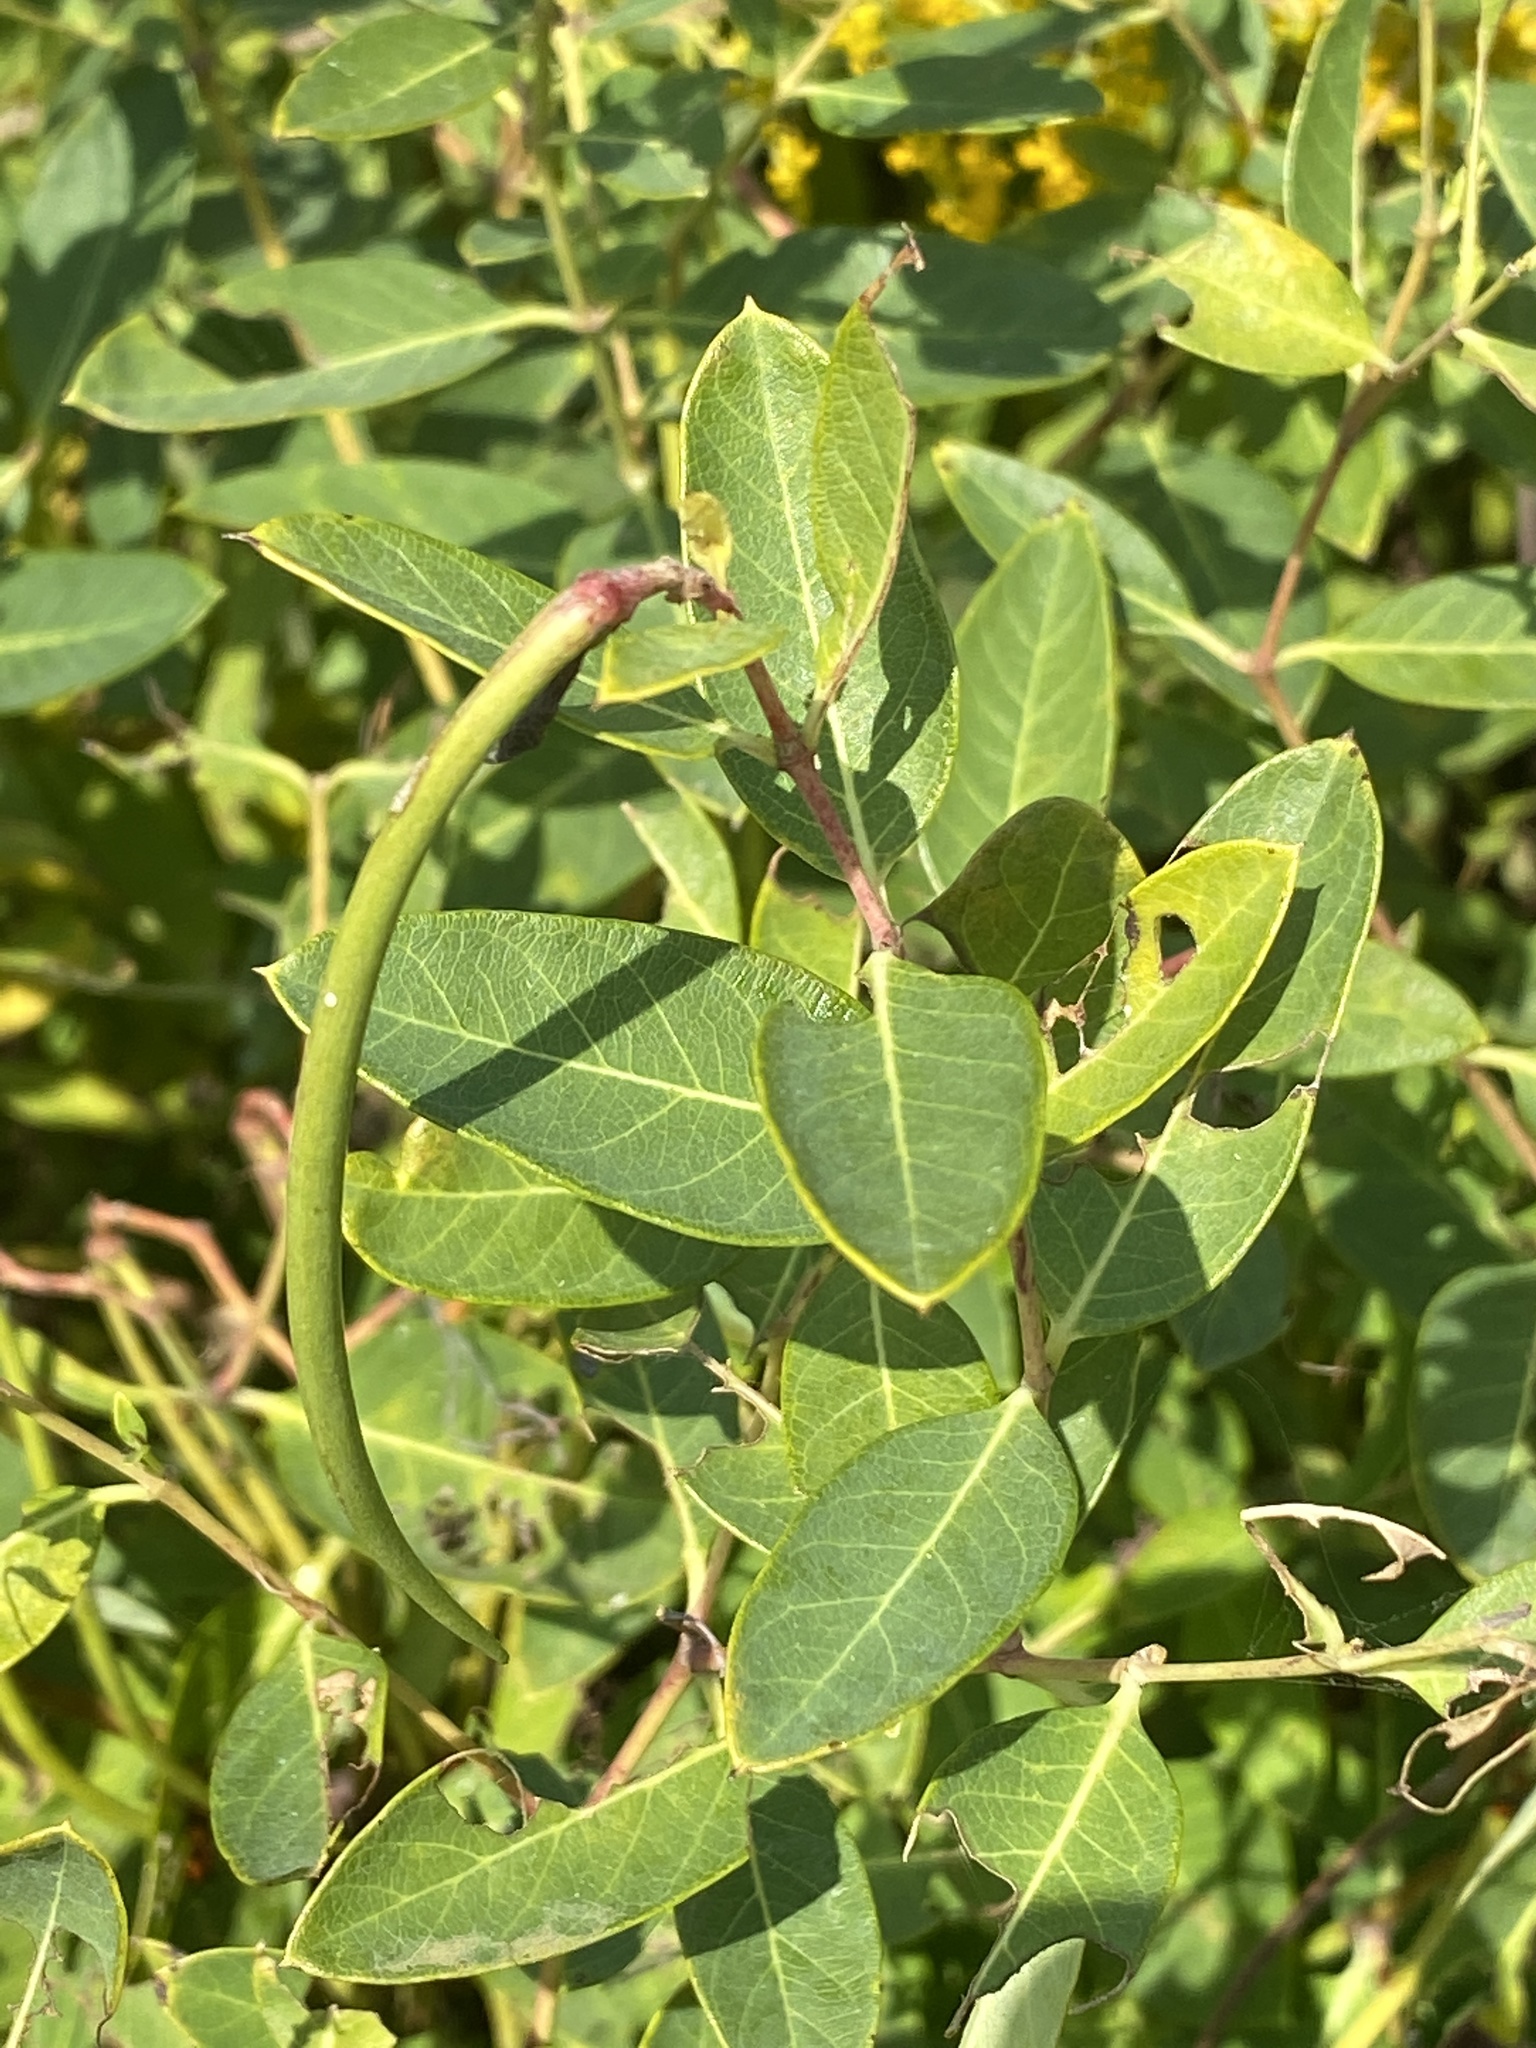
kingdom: Plantae
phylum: Tracheophyta
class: Magnoliopsida
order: Gentianales
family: Apocynaceae
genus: Apocynum
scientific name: Apocynum cannabinum
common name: Hemp dogbane
